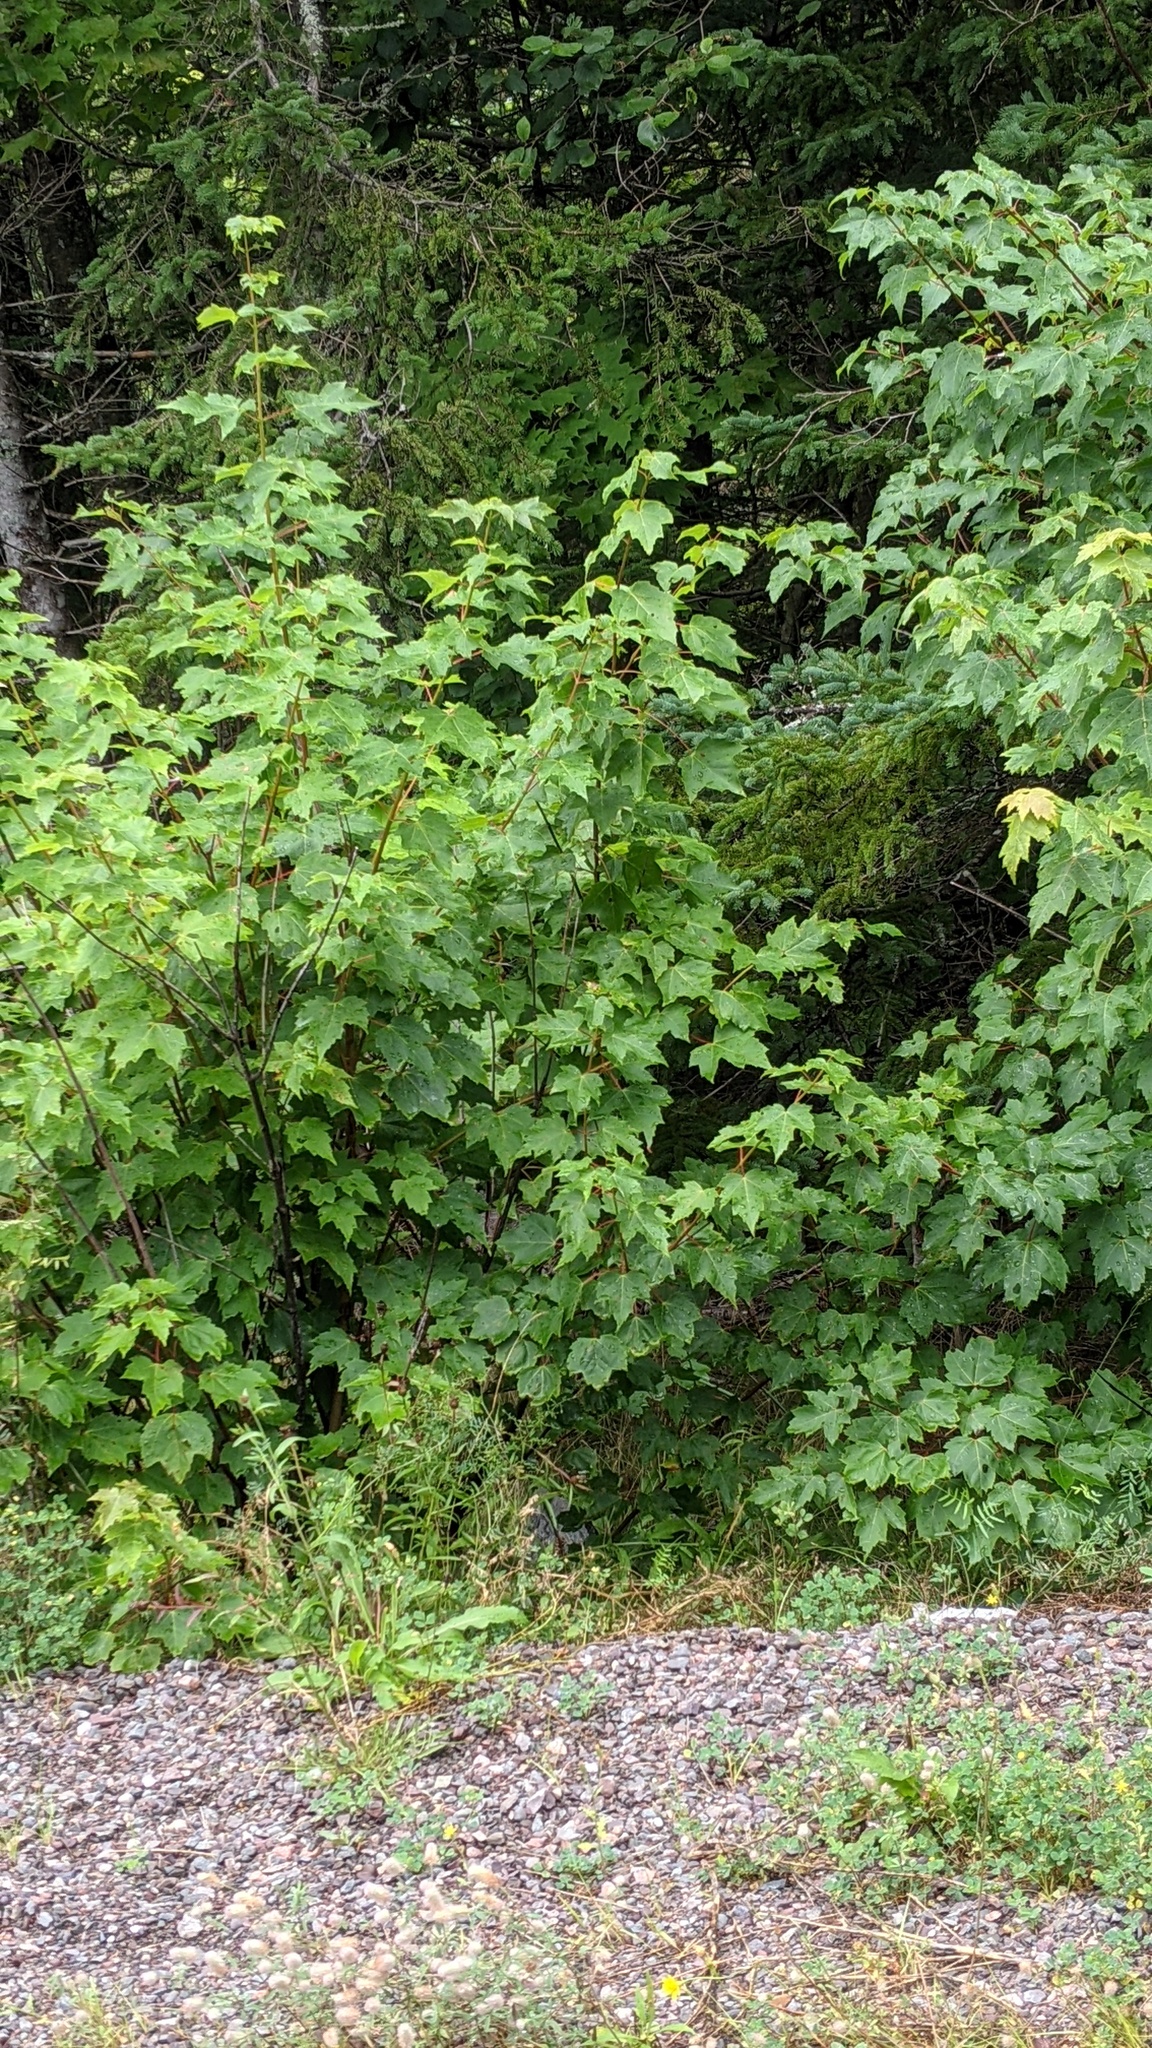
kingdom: Plantae
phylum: Tracheophyta
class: Magnoliopsida
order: Sapindales
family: Sapindaceae
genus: Acer
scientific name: Acer rubrum
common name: Red maple
